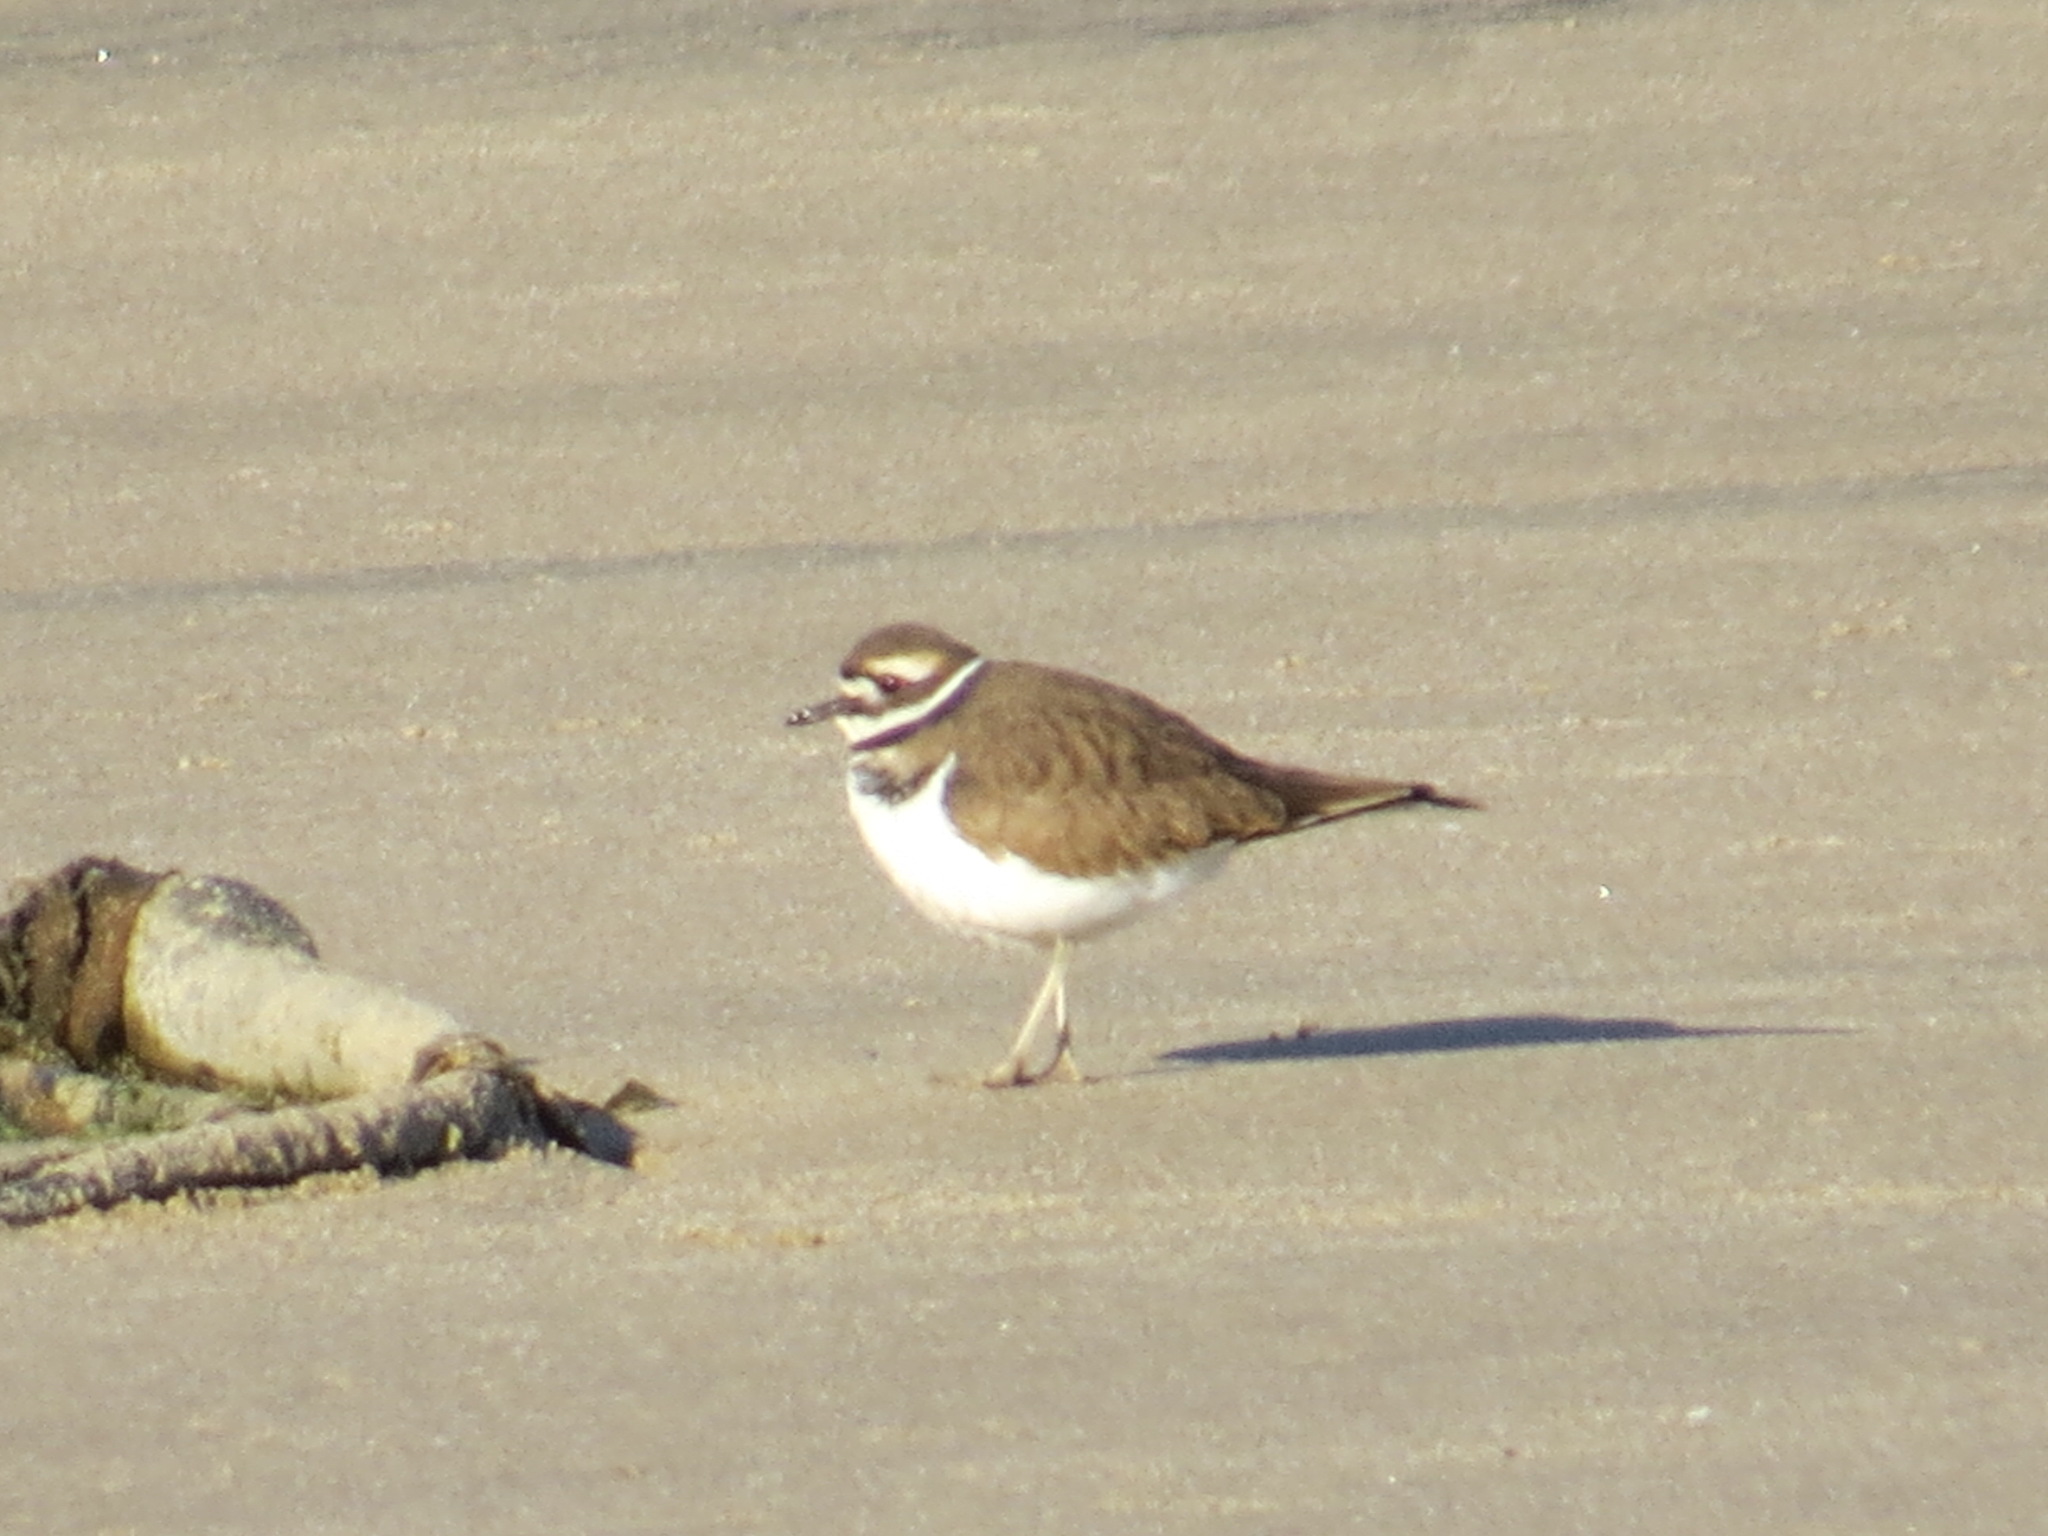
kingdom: Animalia
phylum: Chordata
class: Aves
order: Charadriiformes
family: Charadriidae
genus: Charadrius
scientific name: Charadrius vociferus
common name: Killdeer
